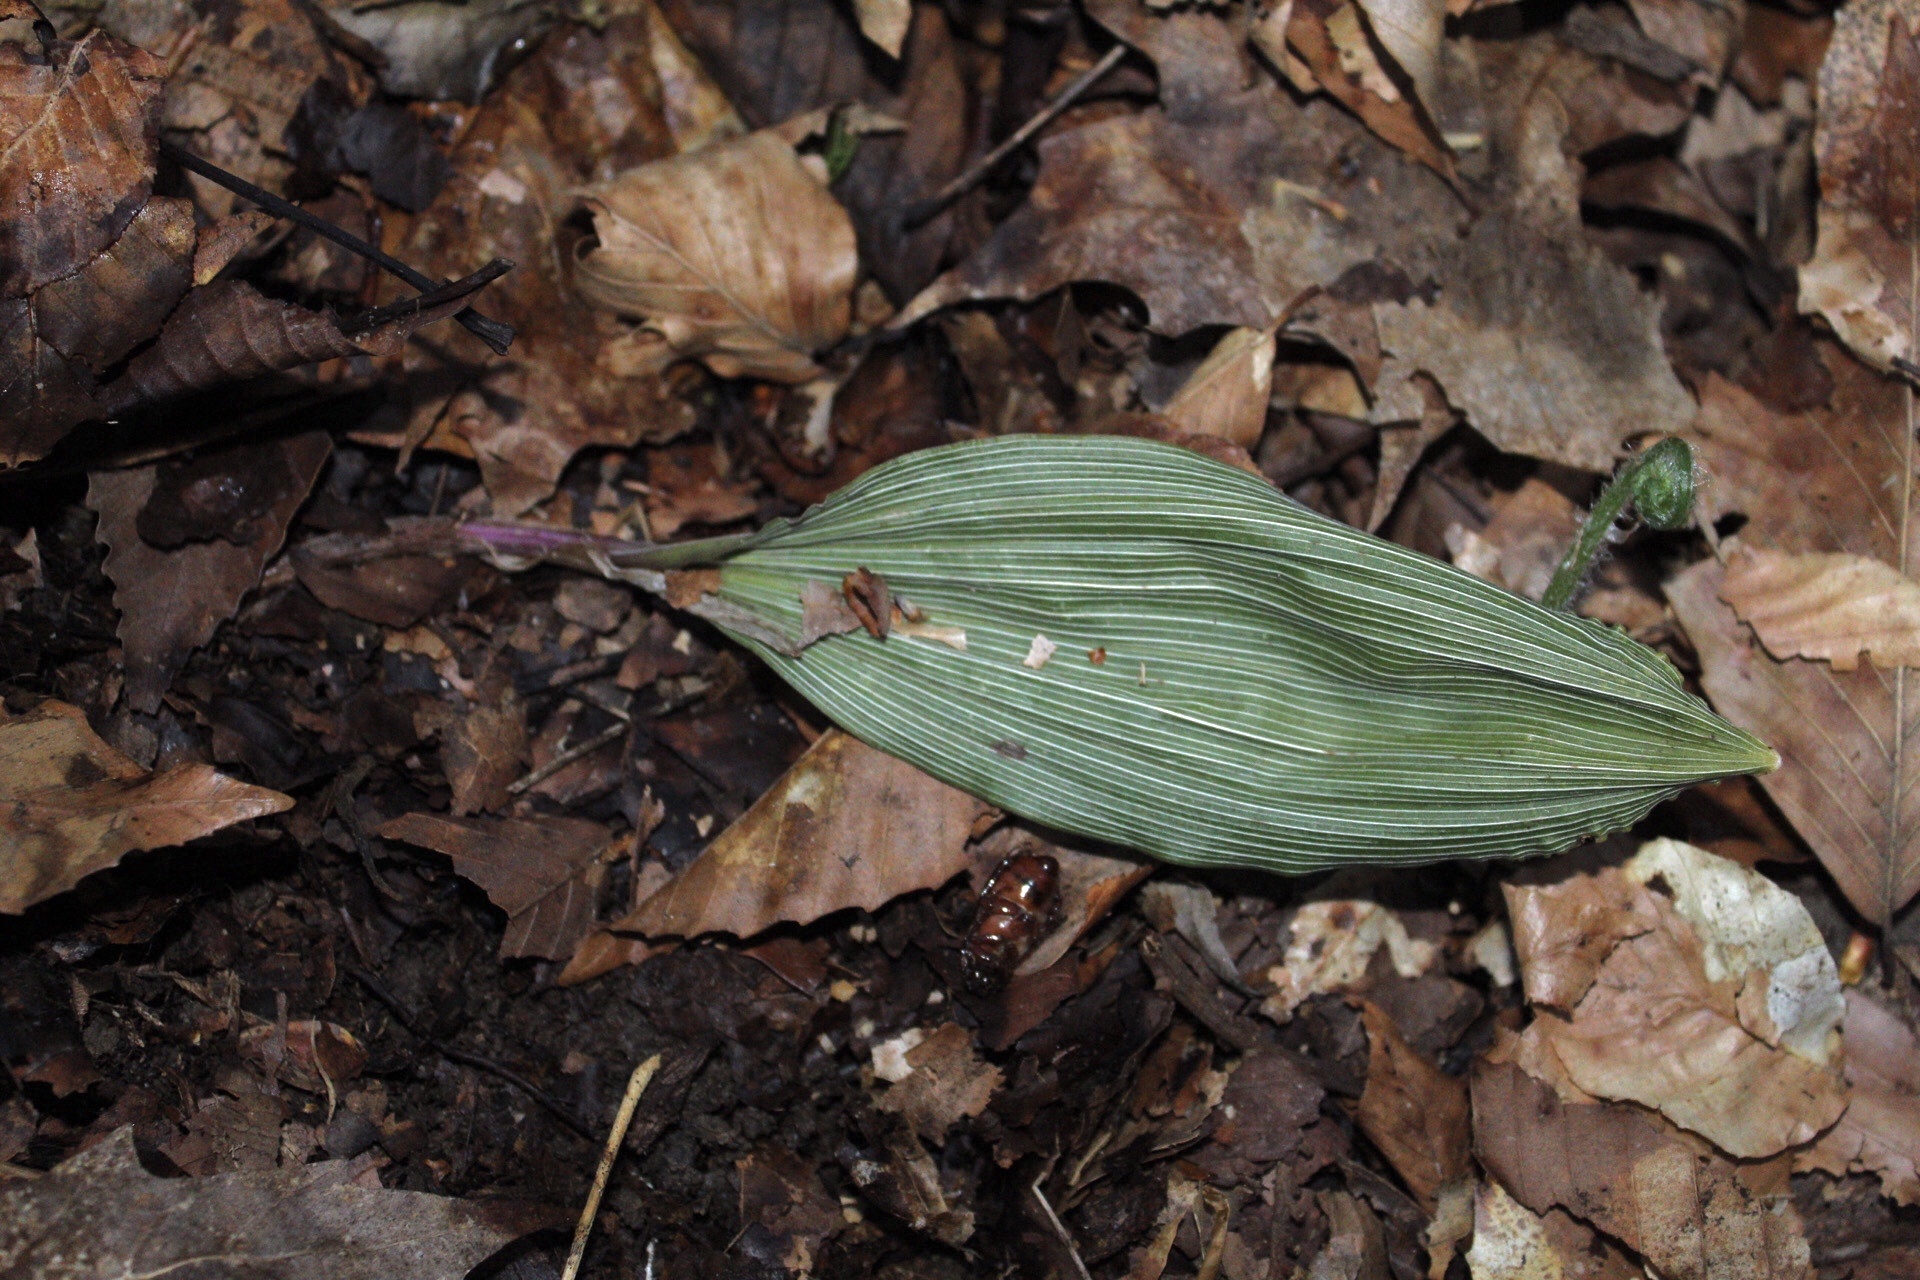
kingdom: Plantae
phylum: Tracheophyta
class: Liliopsida
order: Asparagales
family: Orchidaceae
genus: Aplectrum
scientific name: Aplectrum hyemale
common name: Adam-and-eve
